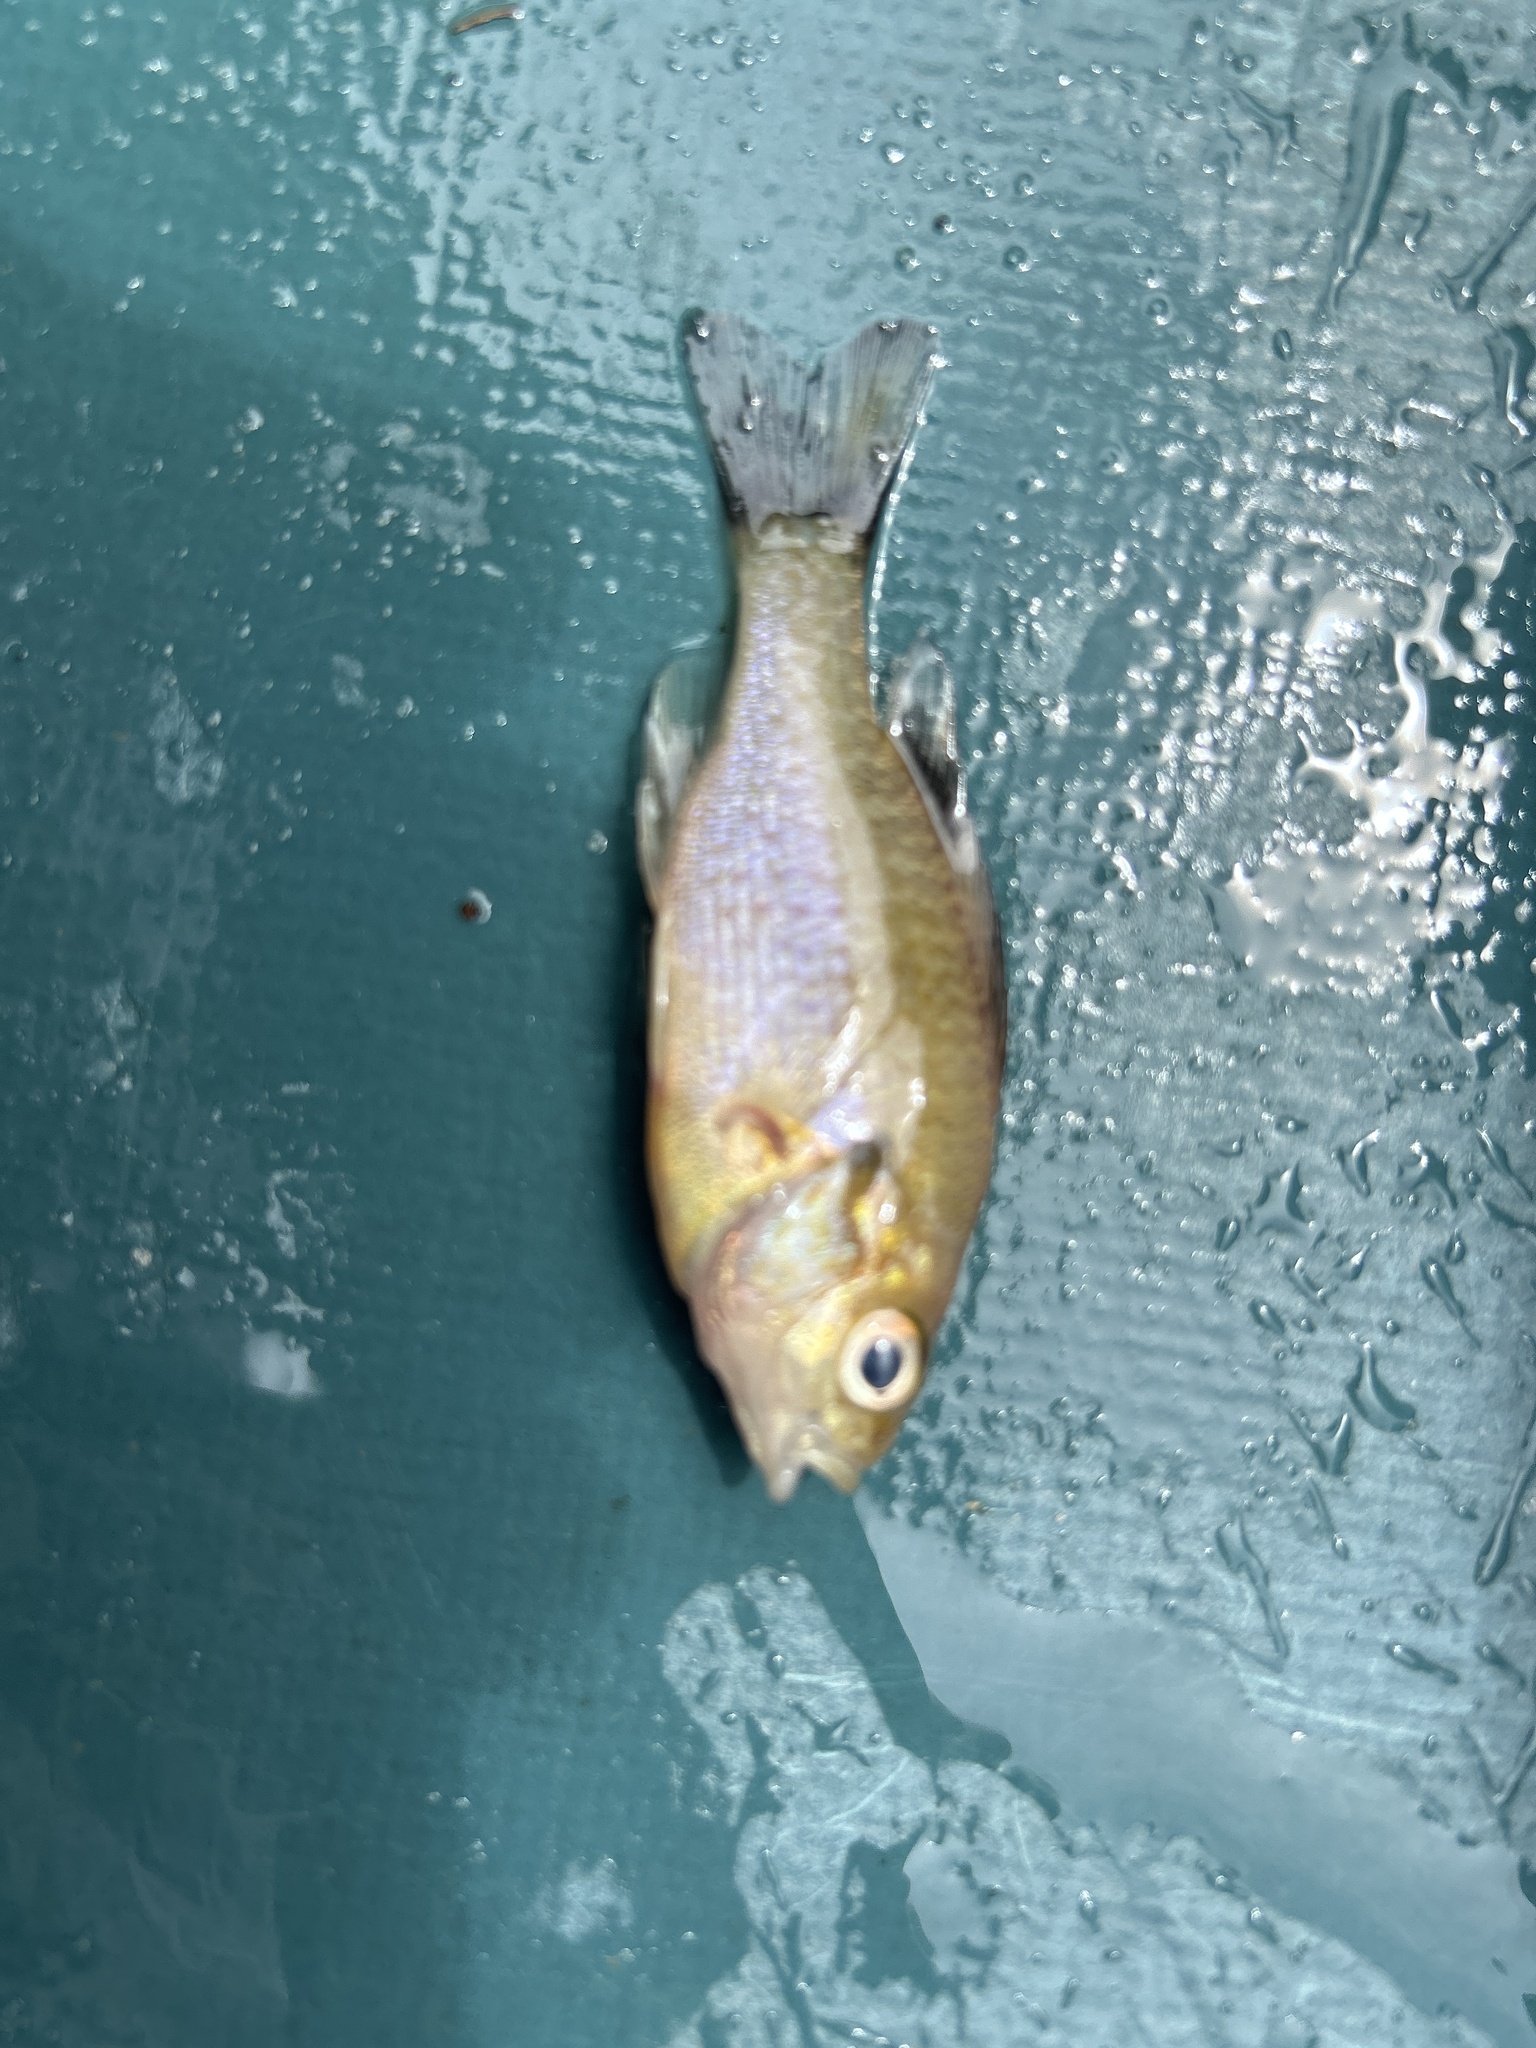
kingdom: Animalia
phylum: Chordata
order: Perciformes
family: Centrarchidae
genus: Lepomis
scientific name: Lepomis auritus
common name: Redbreast sunfish
